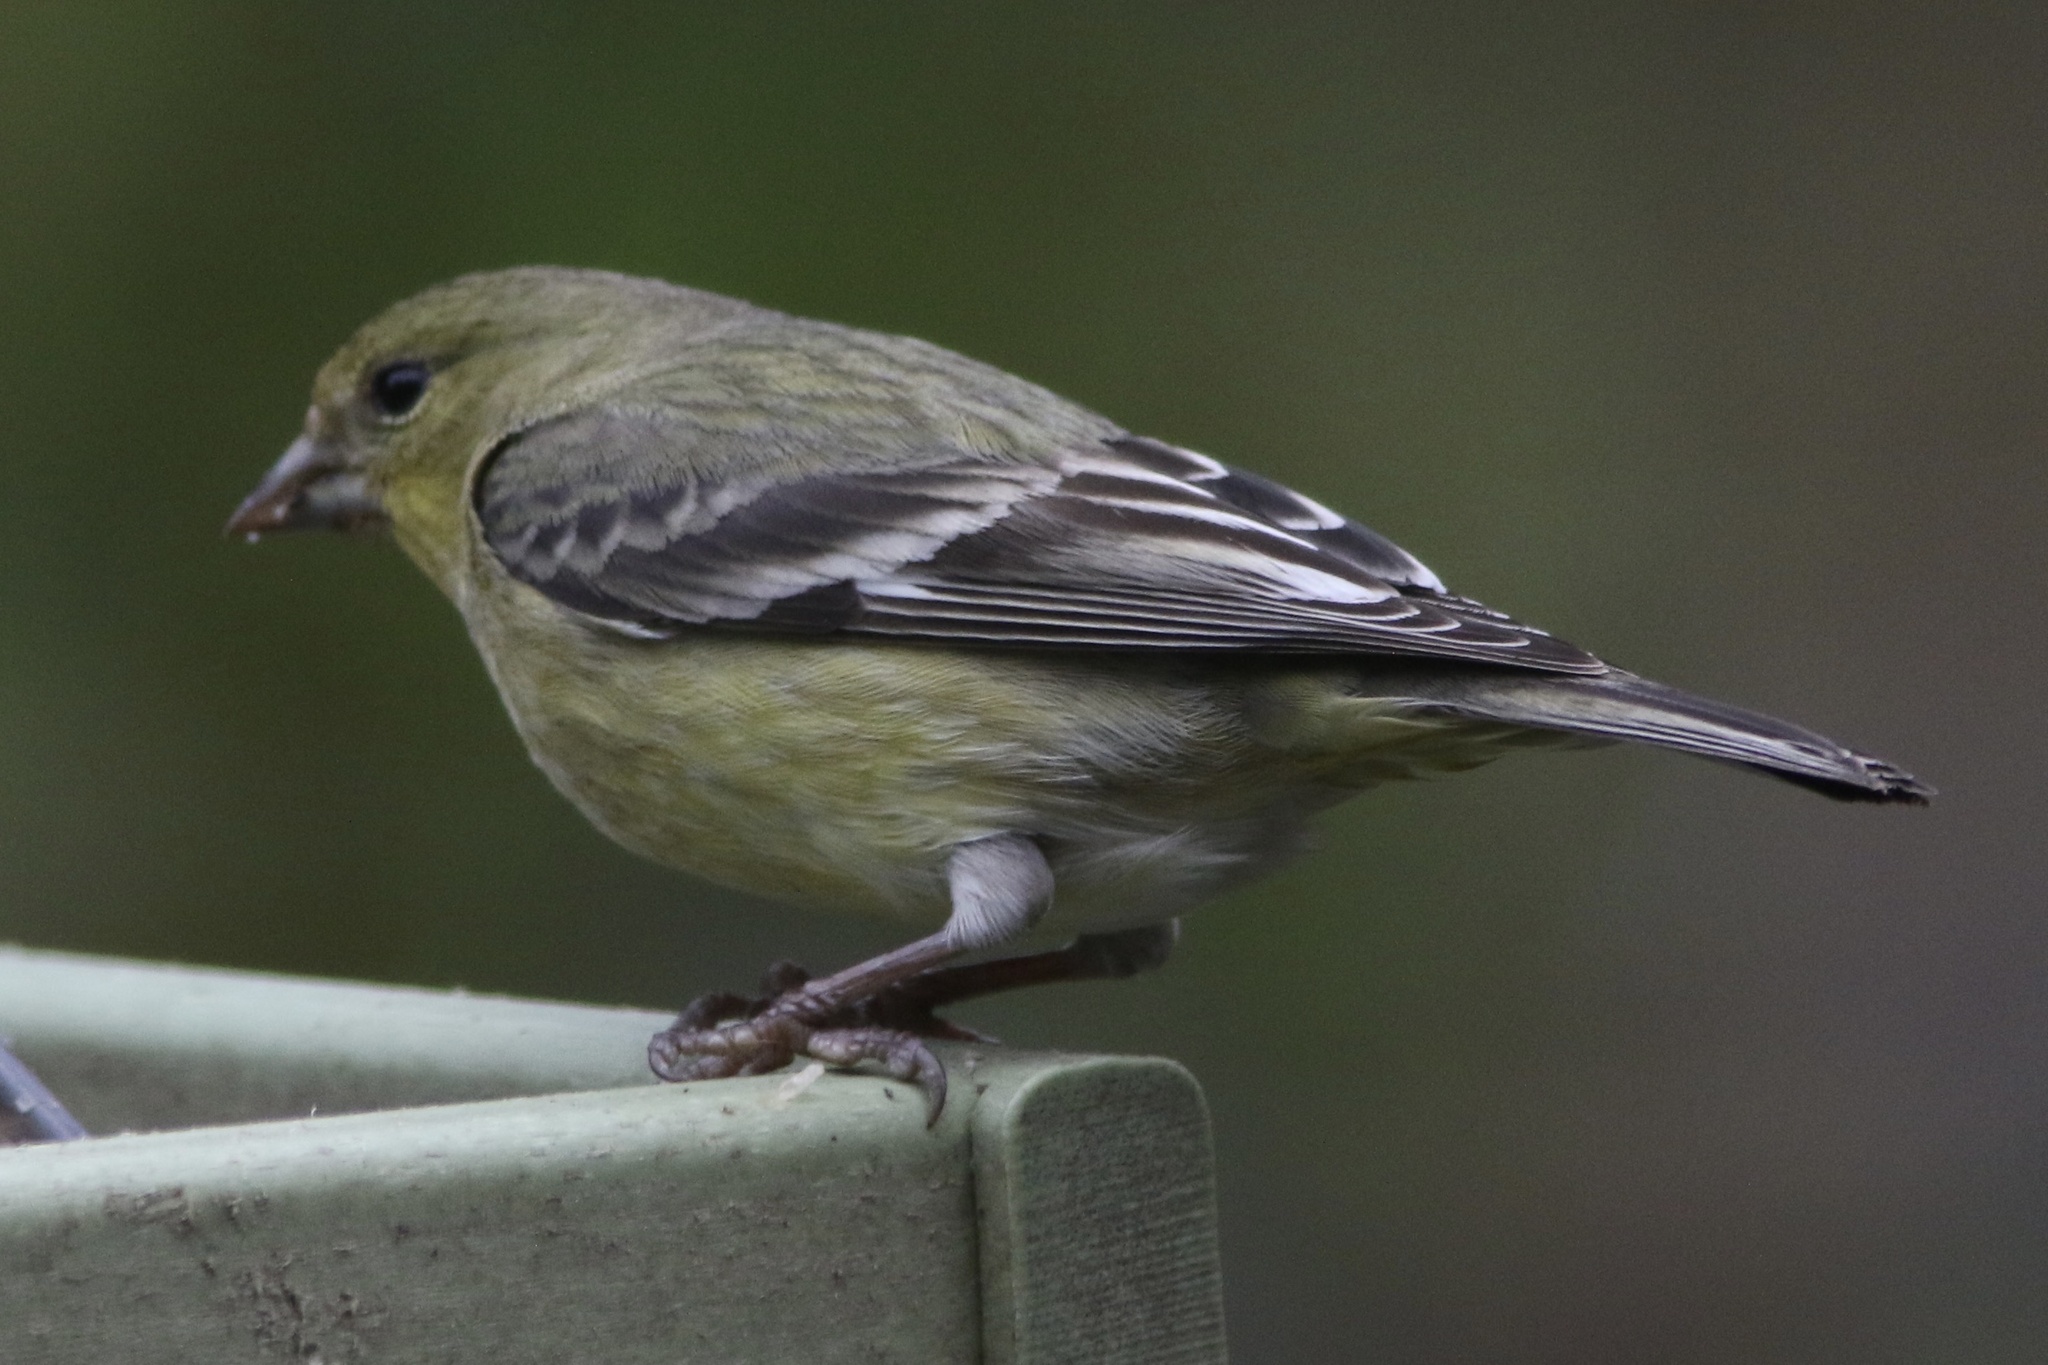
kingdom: Animalia
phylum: Chordata
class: Aves
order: Passeriformes
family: Fringillidae
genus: Spinus
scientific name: Spinus psaltria
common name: Lesser goldfinch
